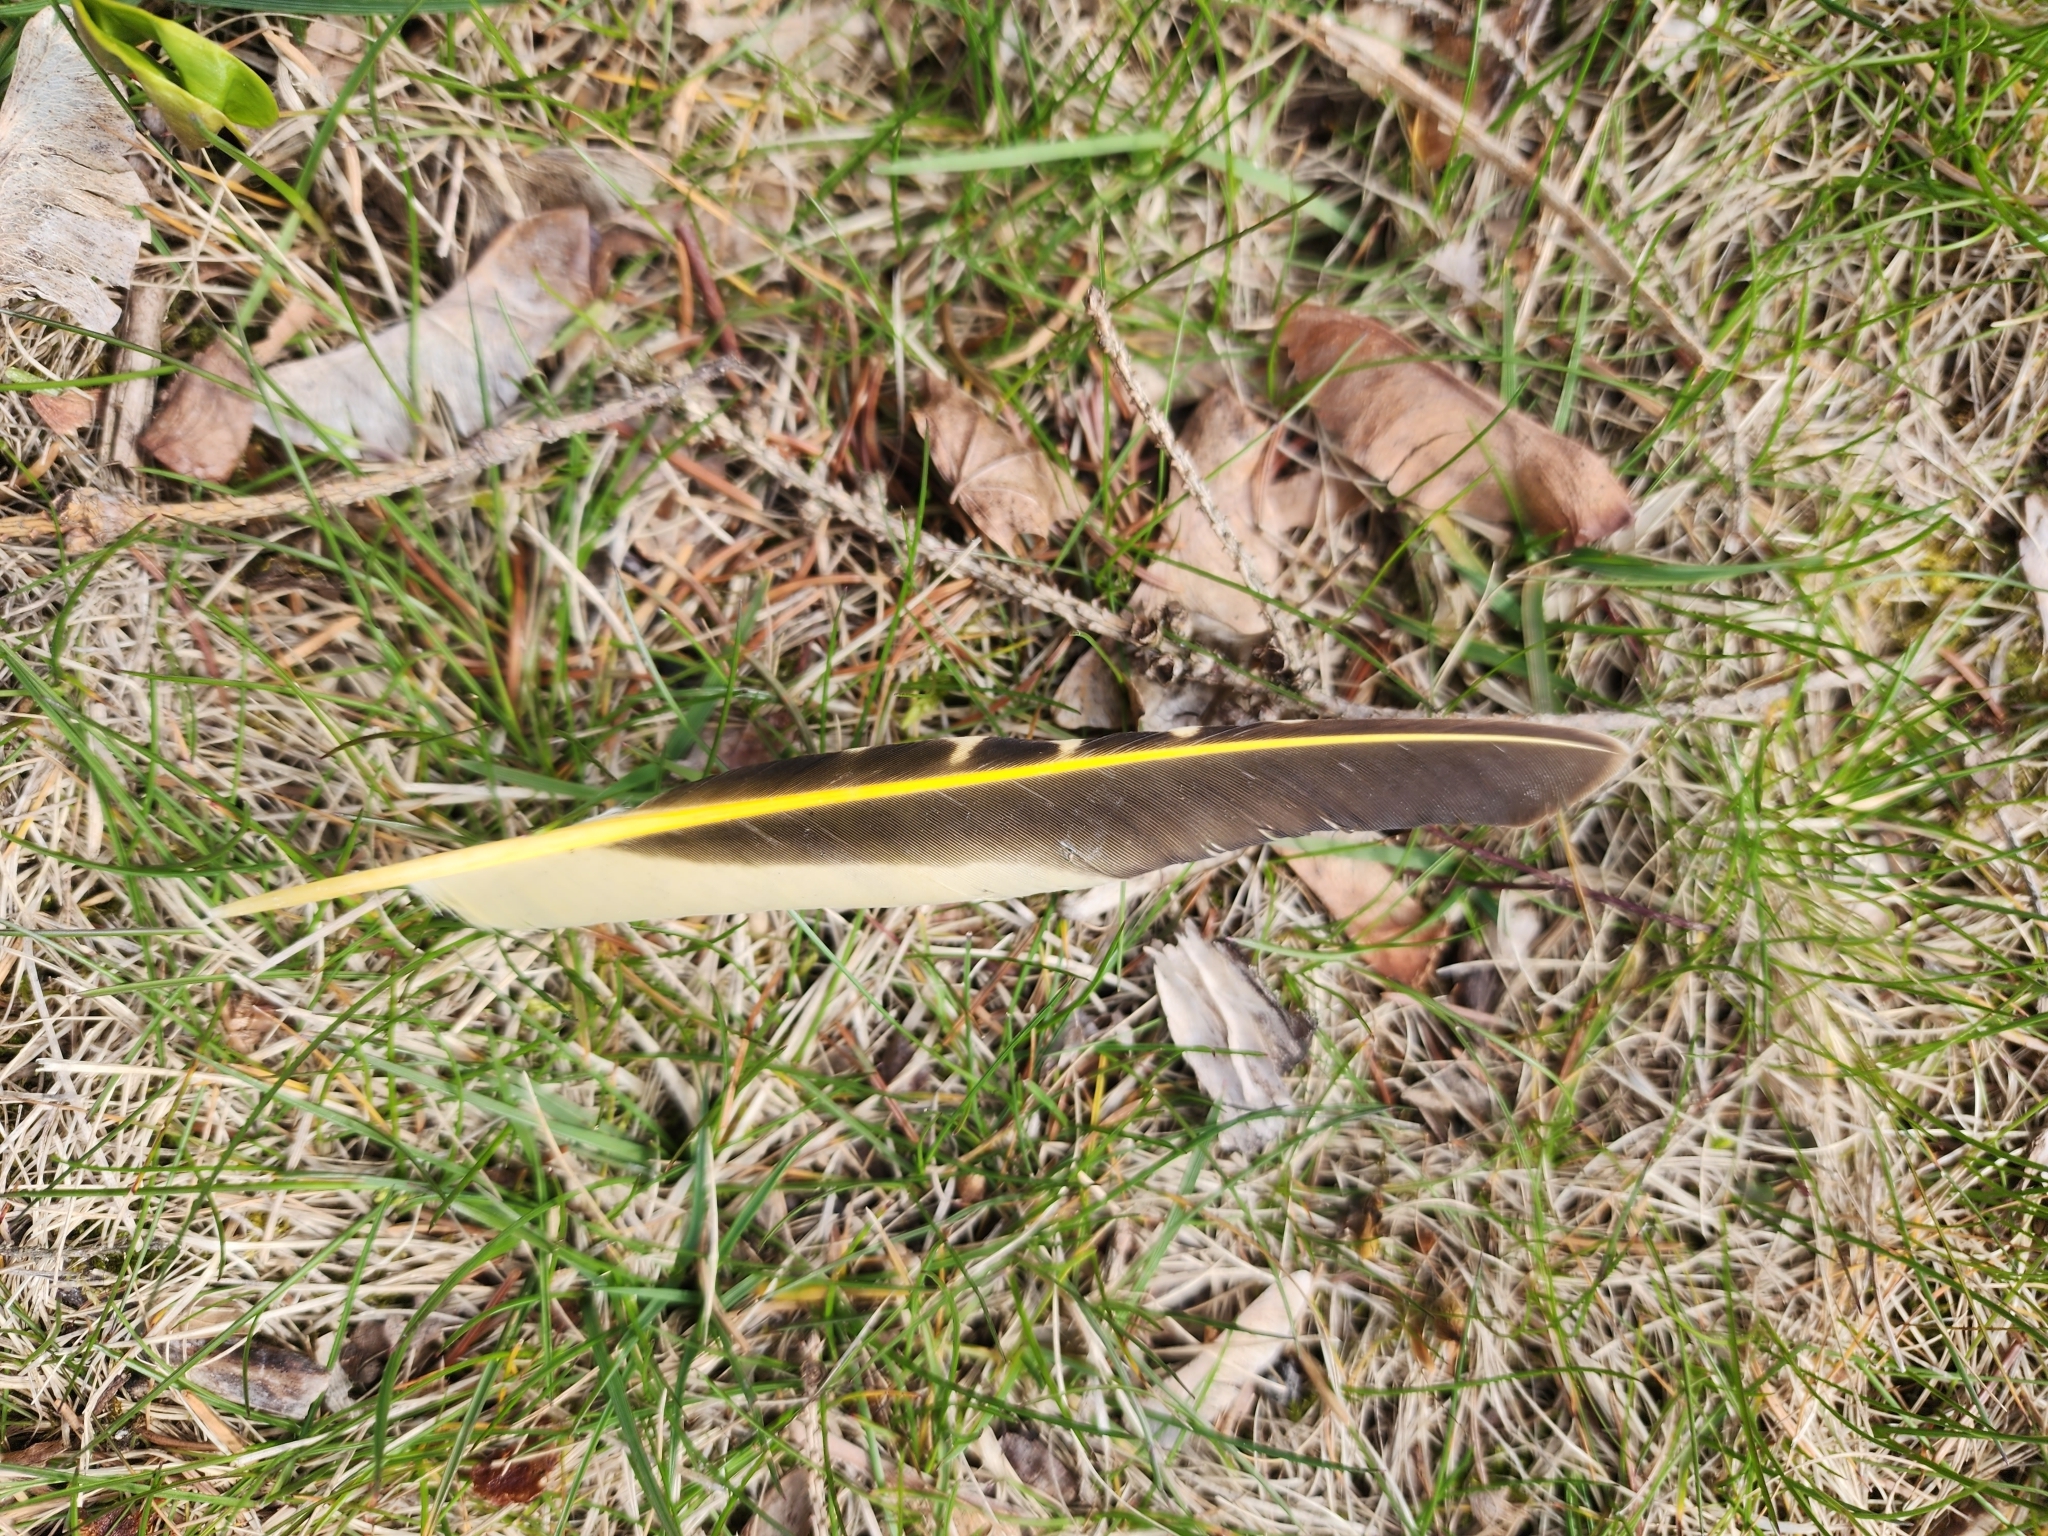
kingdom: Animalia
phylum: Chordata
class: Aves
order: Piciformes
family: Picidae
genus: Colaptes
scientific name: Colaptes auratus
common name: Northern flicker
